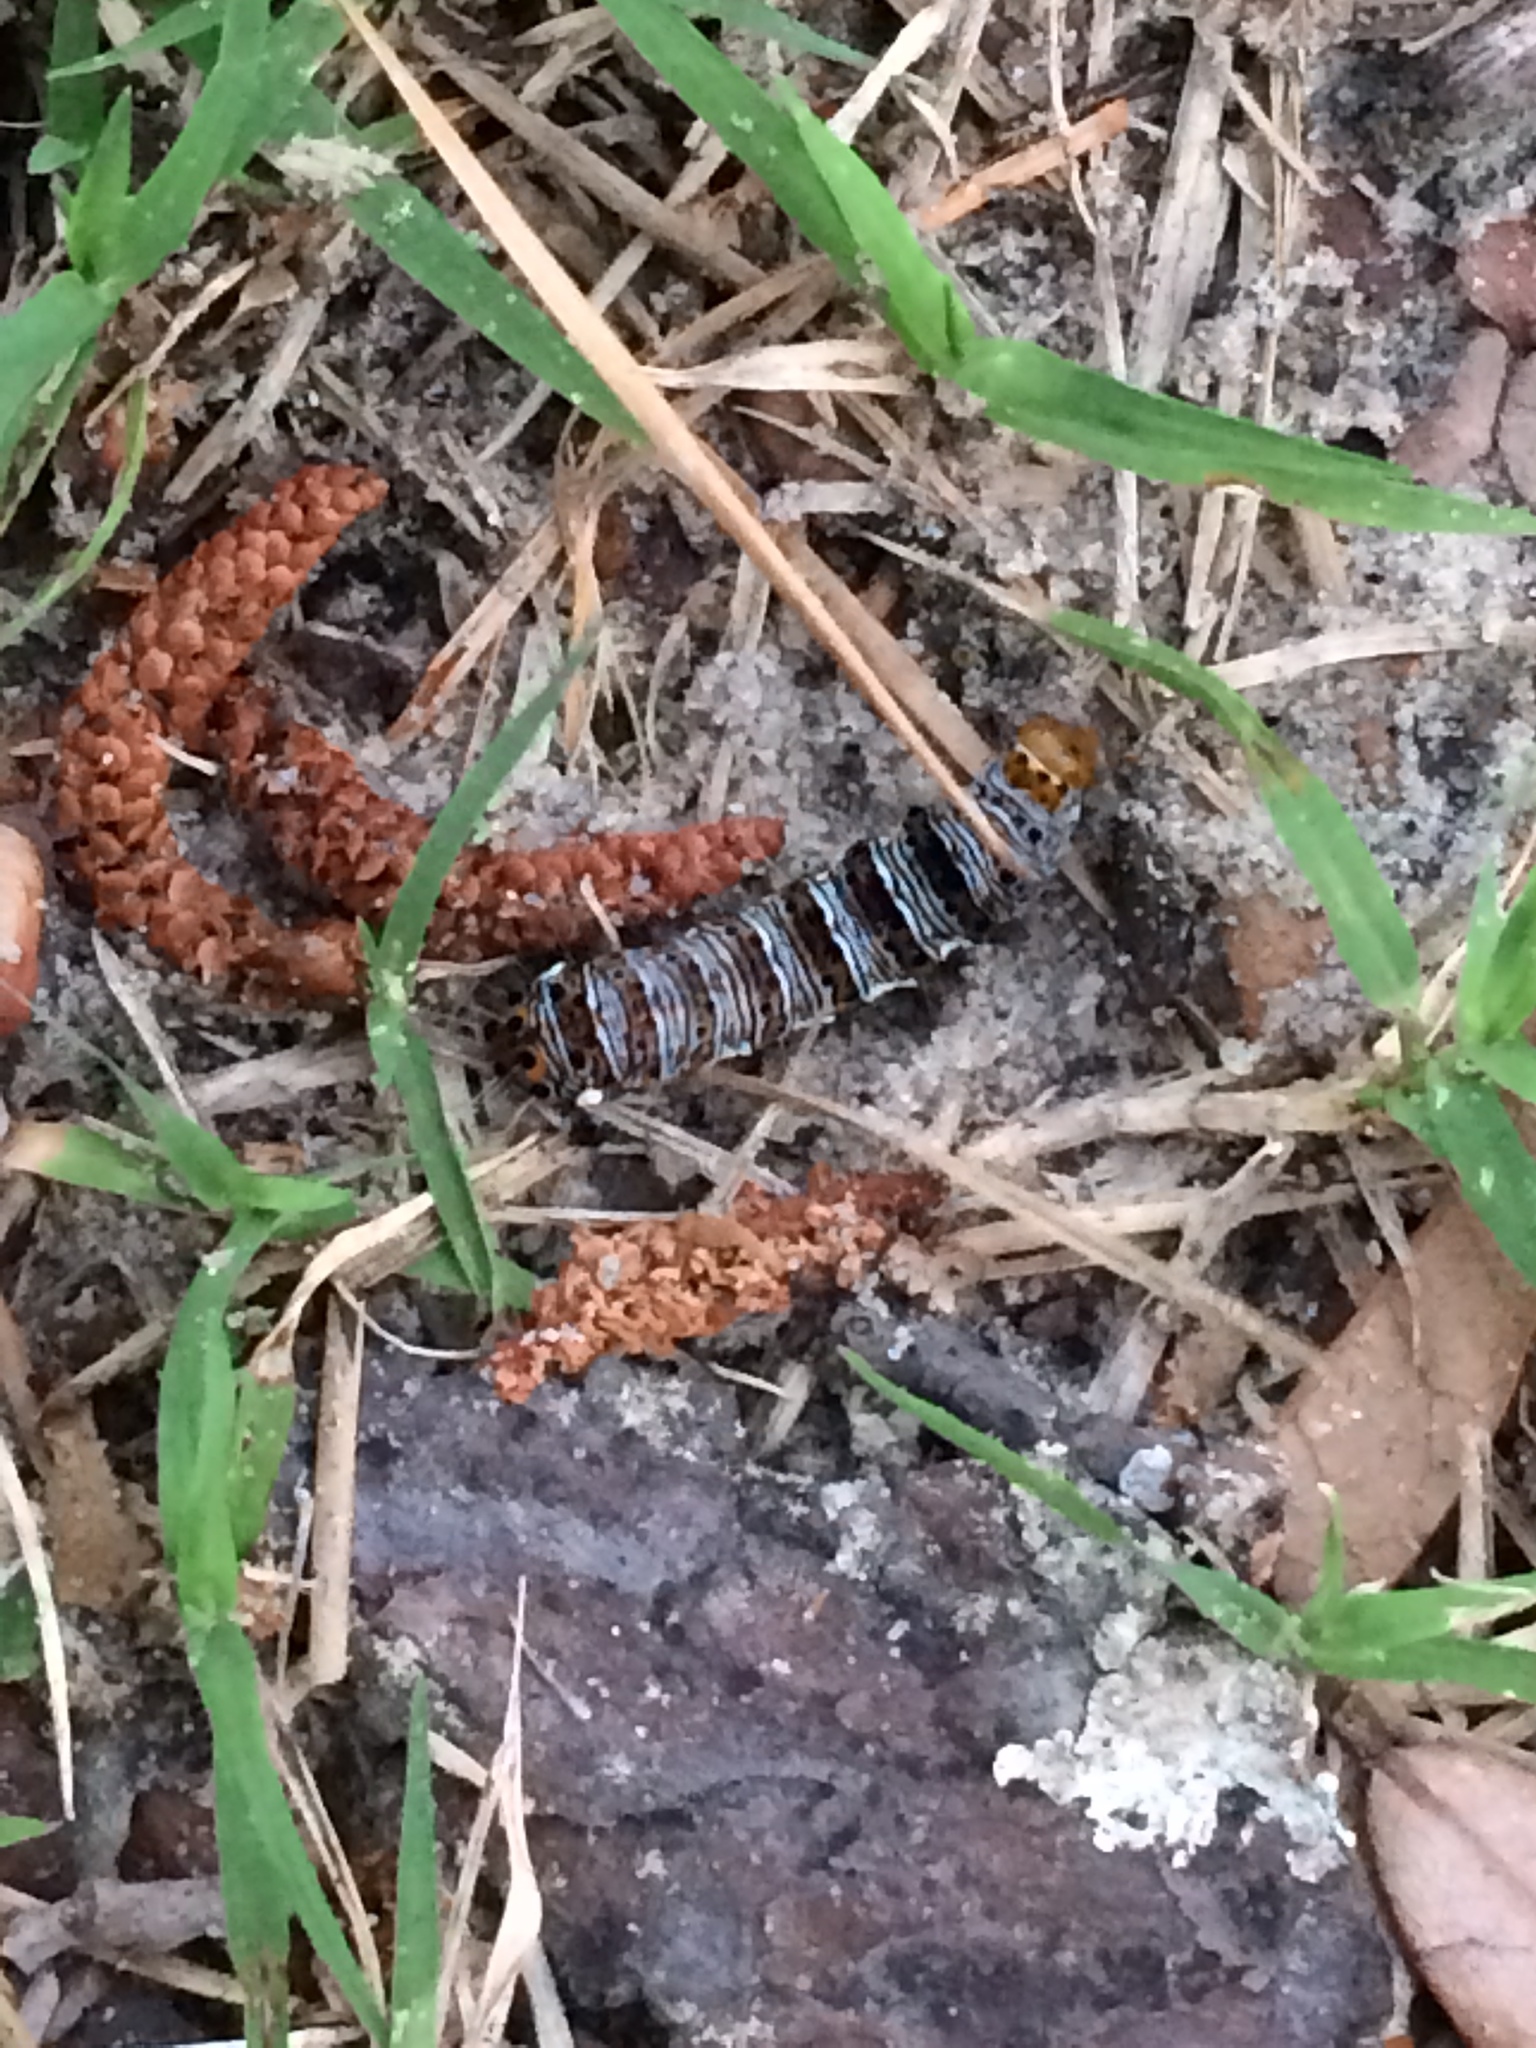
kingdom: Animalia
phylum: Arthropoda
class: Insecta
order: Lepidoptera
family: Noctuidae
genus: Alypia
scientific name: Alypia octomaculata
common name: Eight-spotted forester
